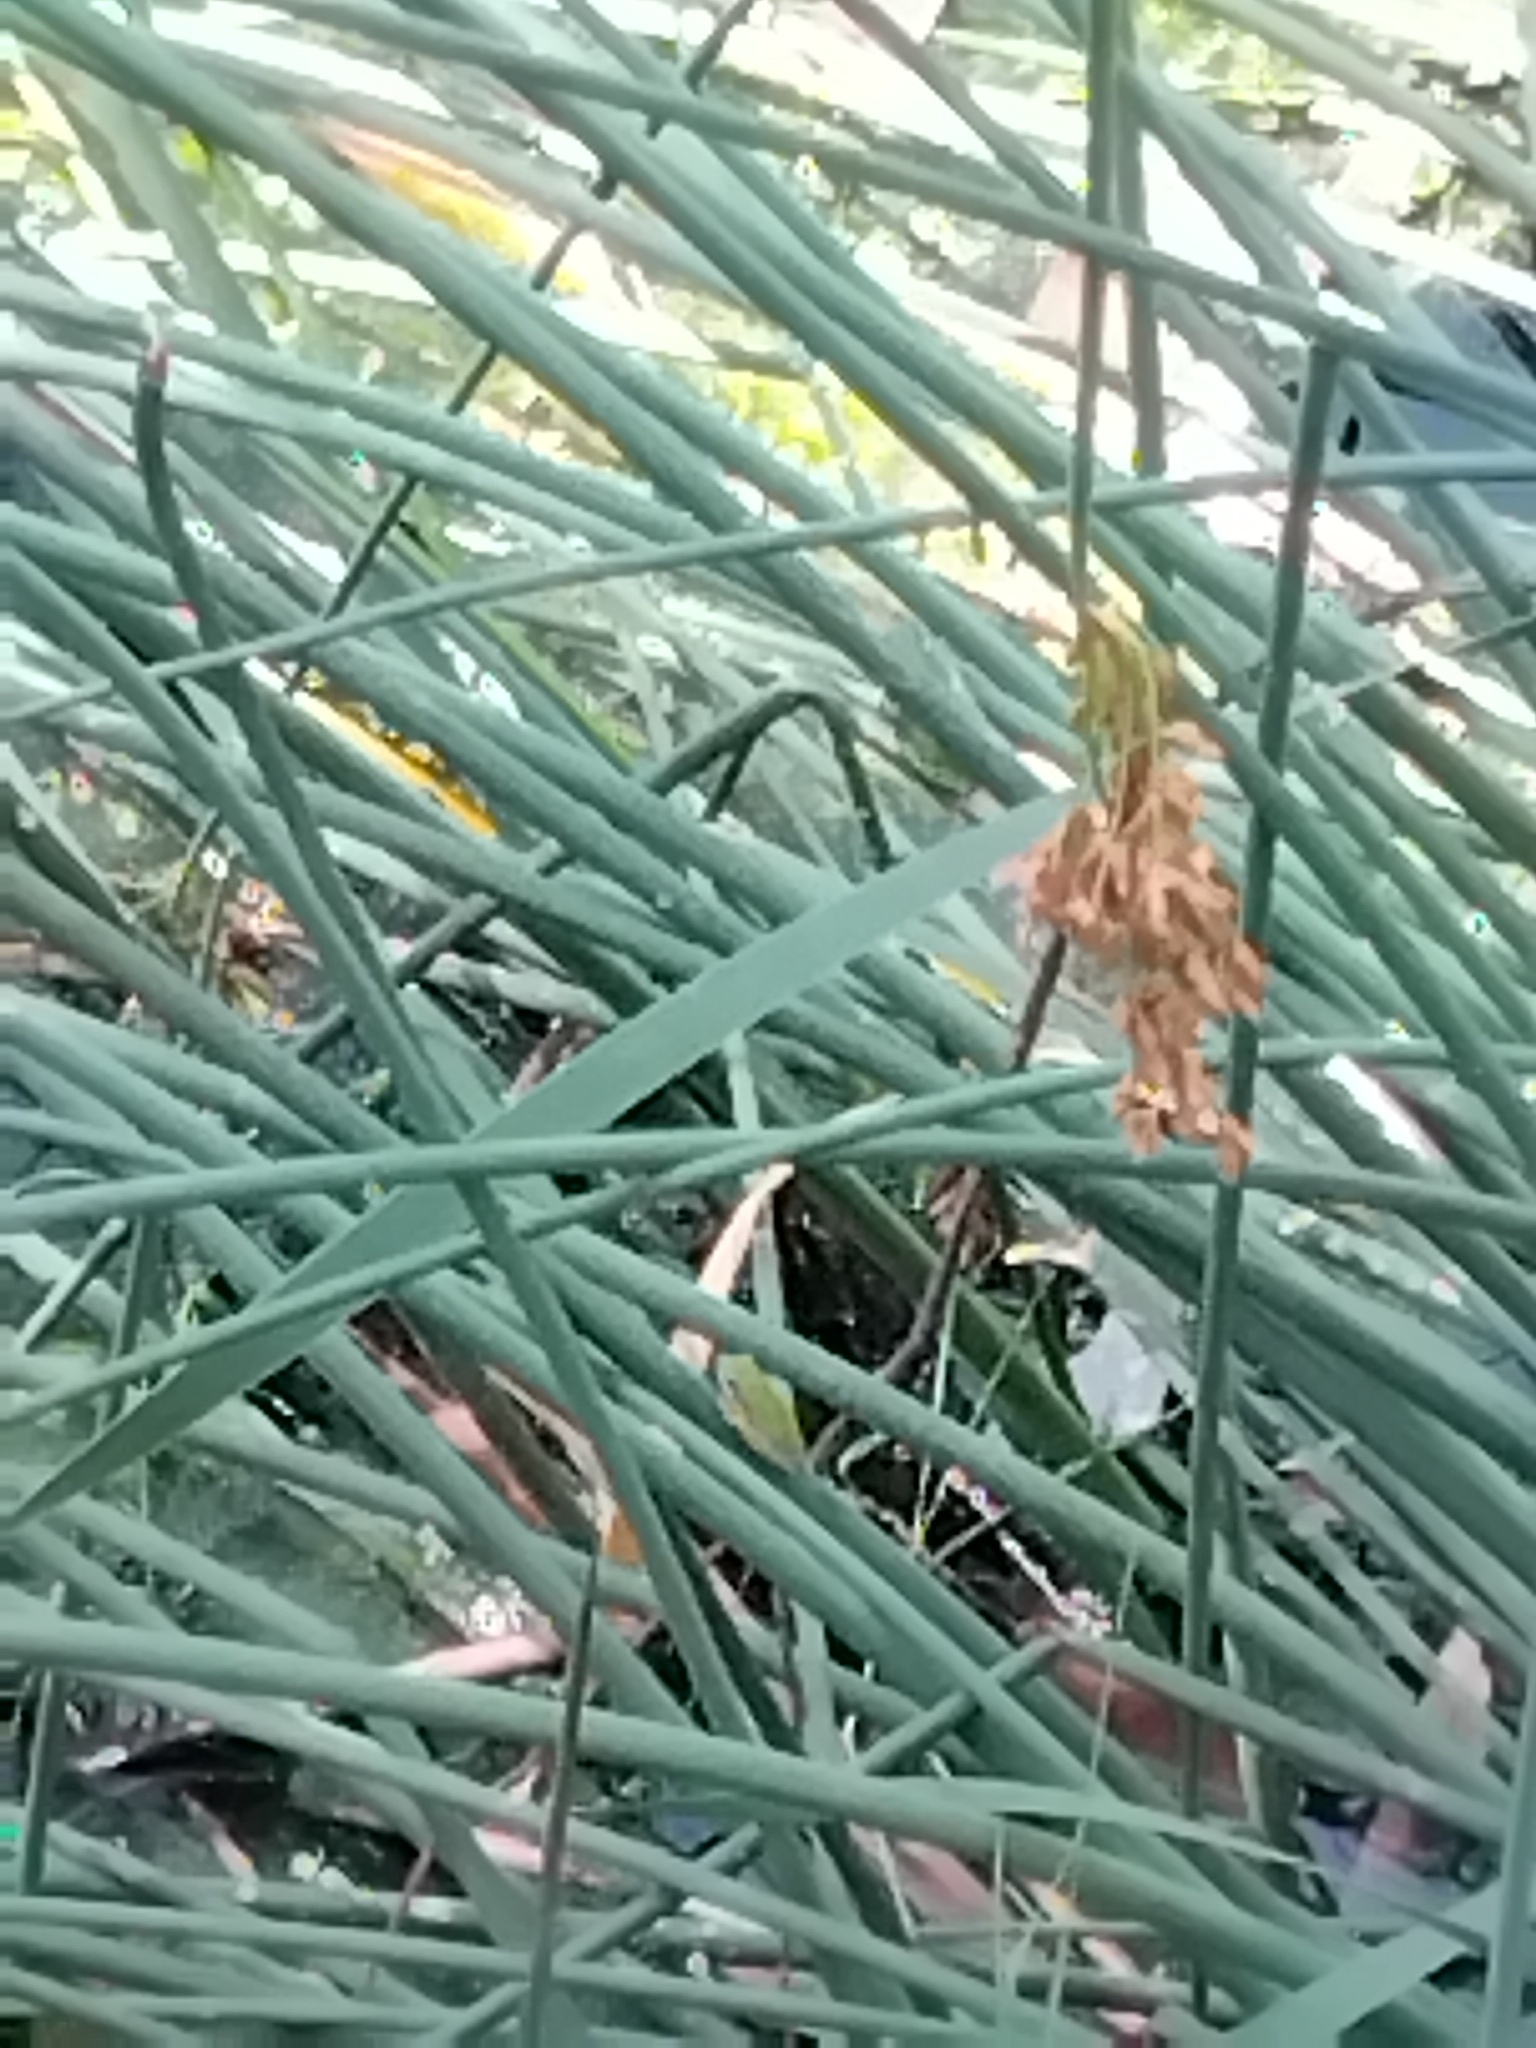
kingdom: Animalia
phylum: Chordata
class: Amphibia
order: Anura
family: Pelodryadidae
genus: Litoria
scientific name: Litoria fallax
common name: Eastern dwarf treefrog
